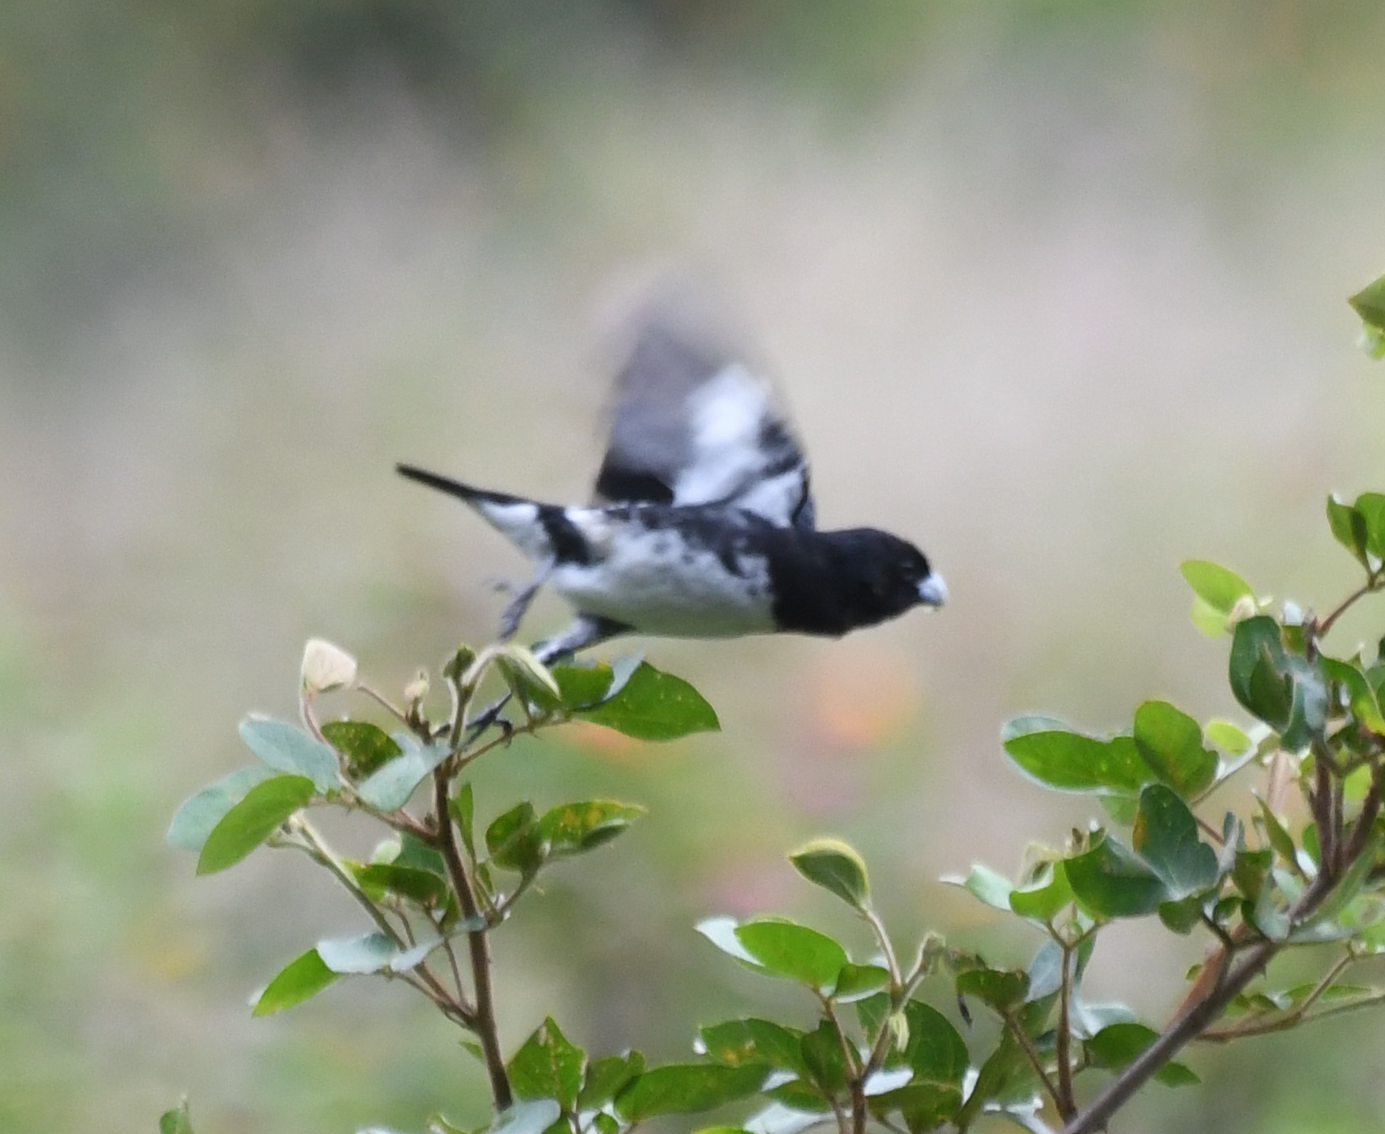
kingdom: Animalia
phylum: Chordata
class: Aves
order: Passeriformes
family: Thraupidae
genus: Sporophila
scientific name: Sporophila luctuosa
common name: Black-and-white seedeater
